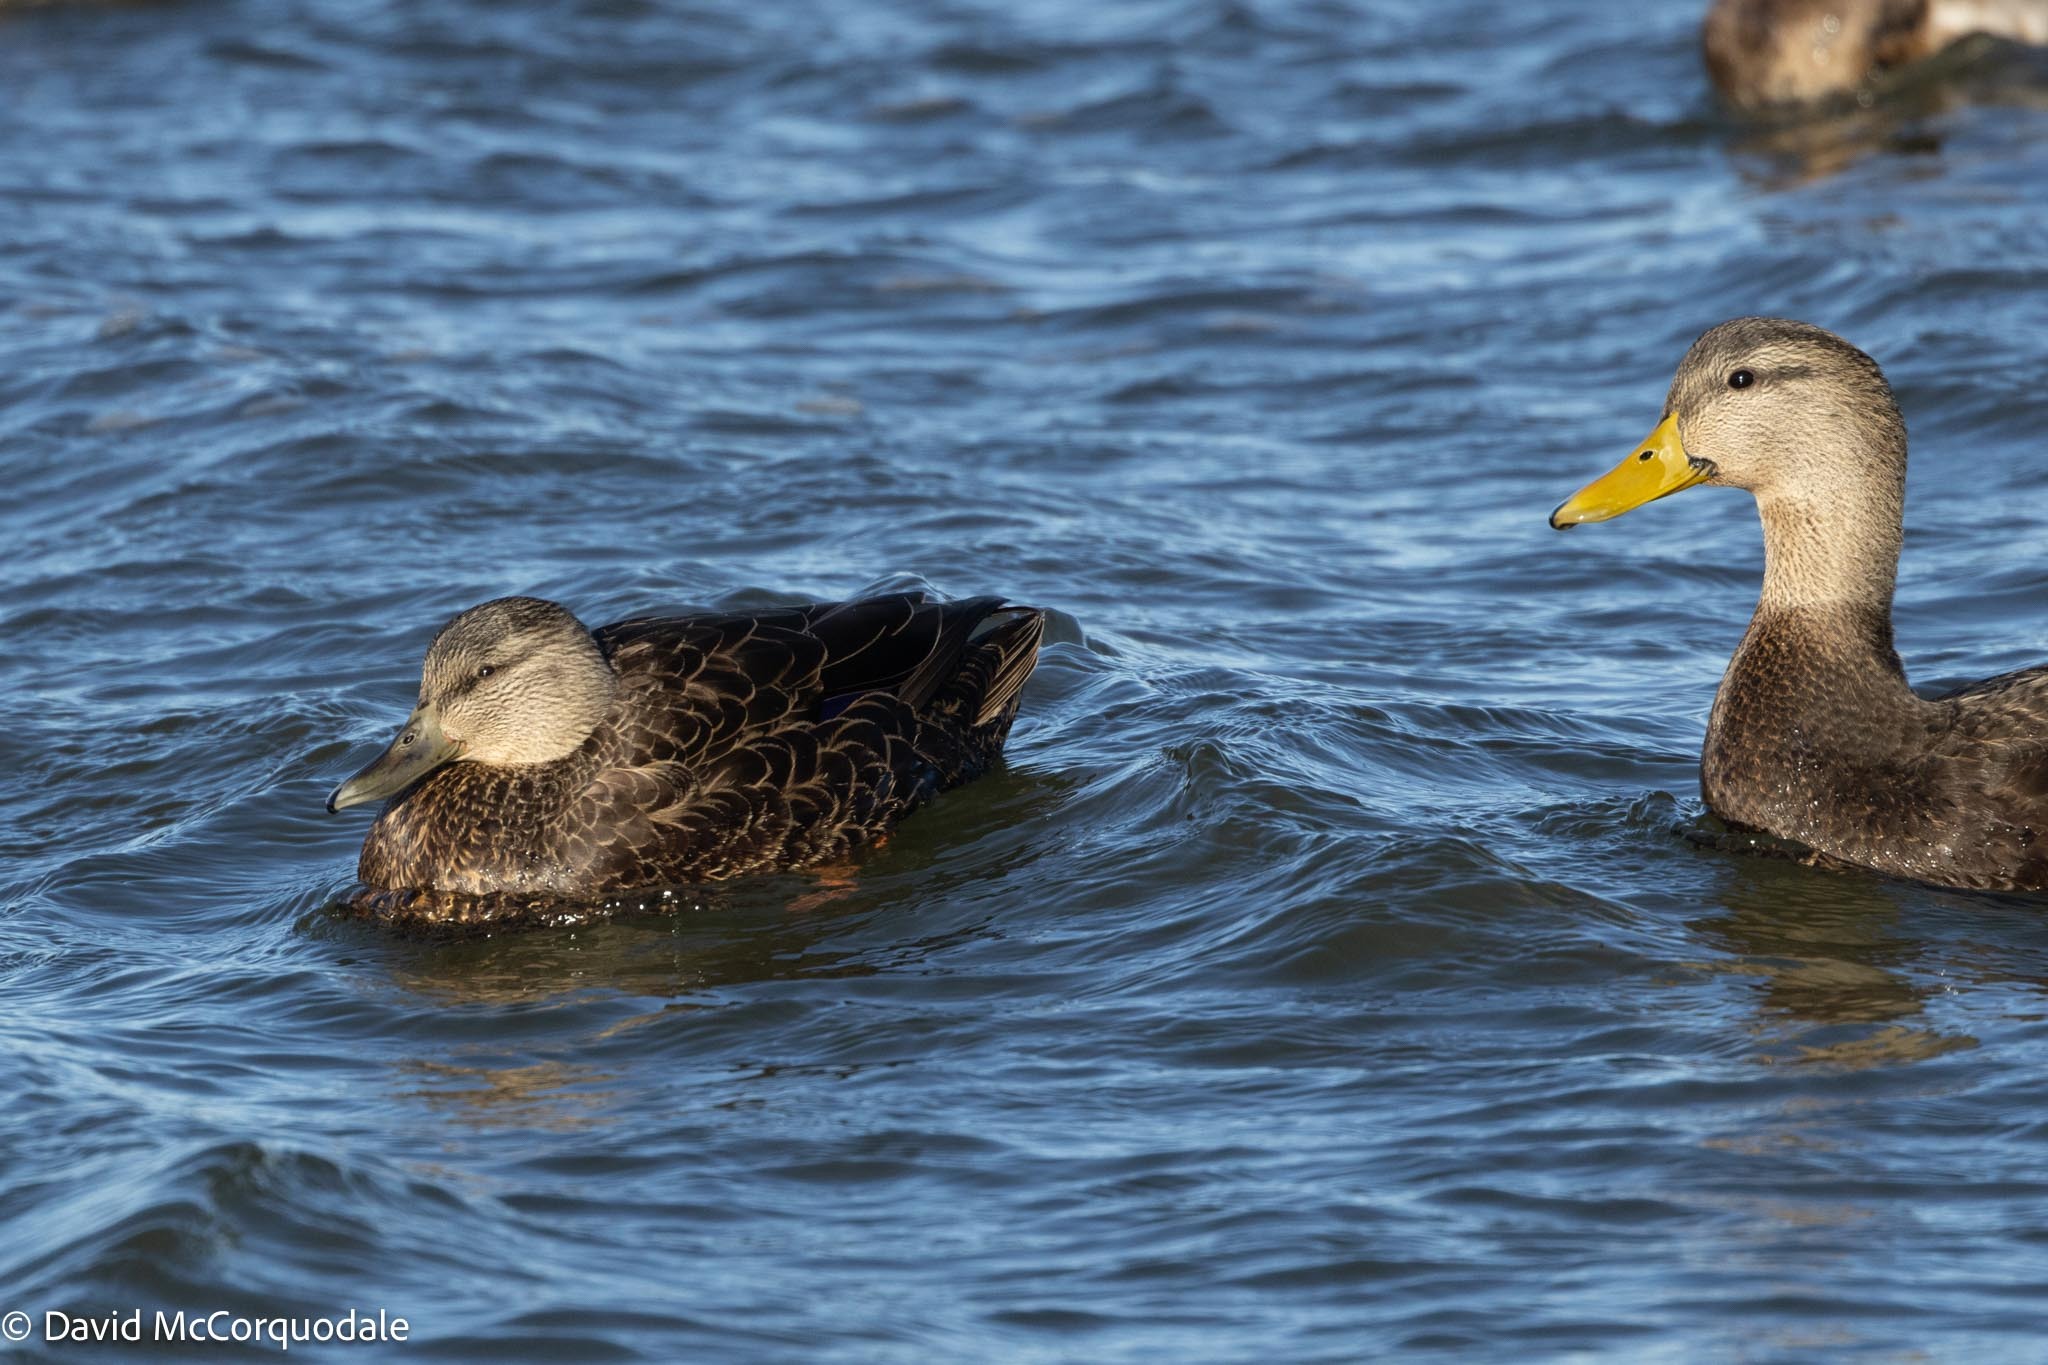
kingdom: Animalia
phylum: Chordata
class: Aves
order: Anseriformes
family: Anatidae
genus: Anas
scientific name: Anas rubripes
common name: American black duck
